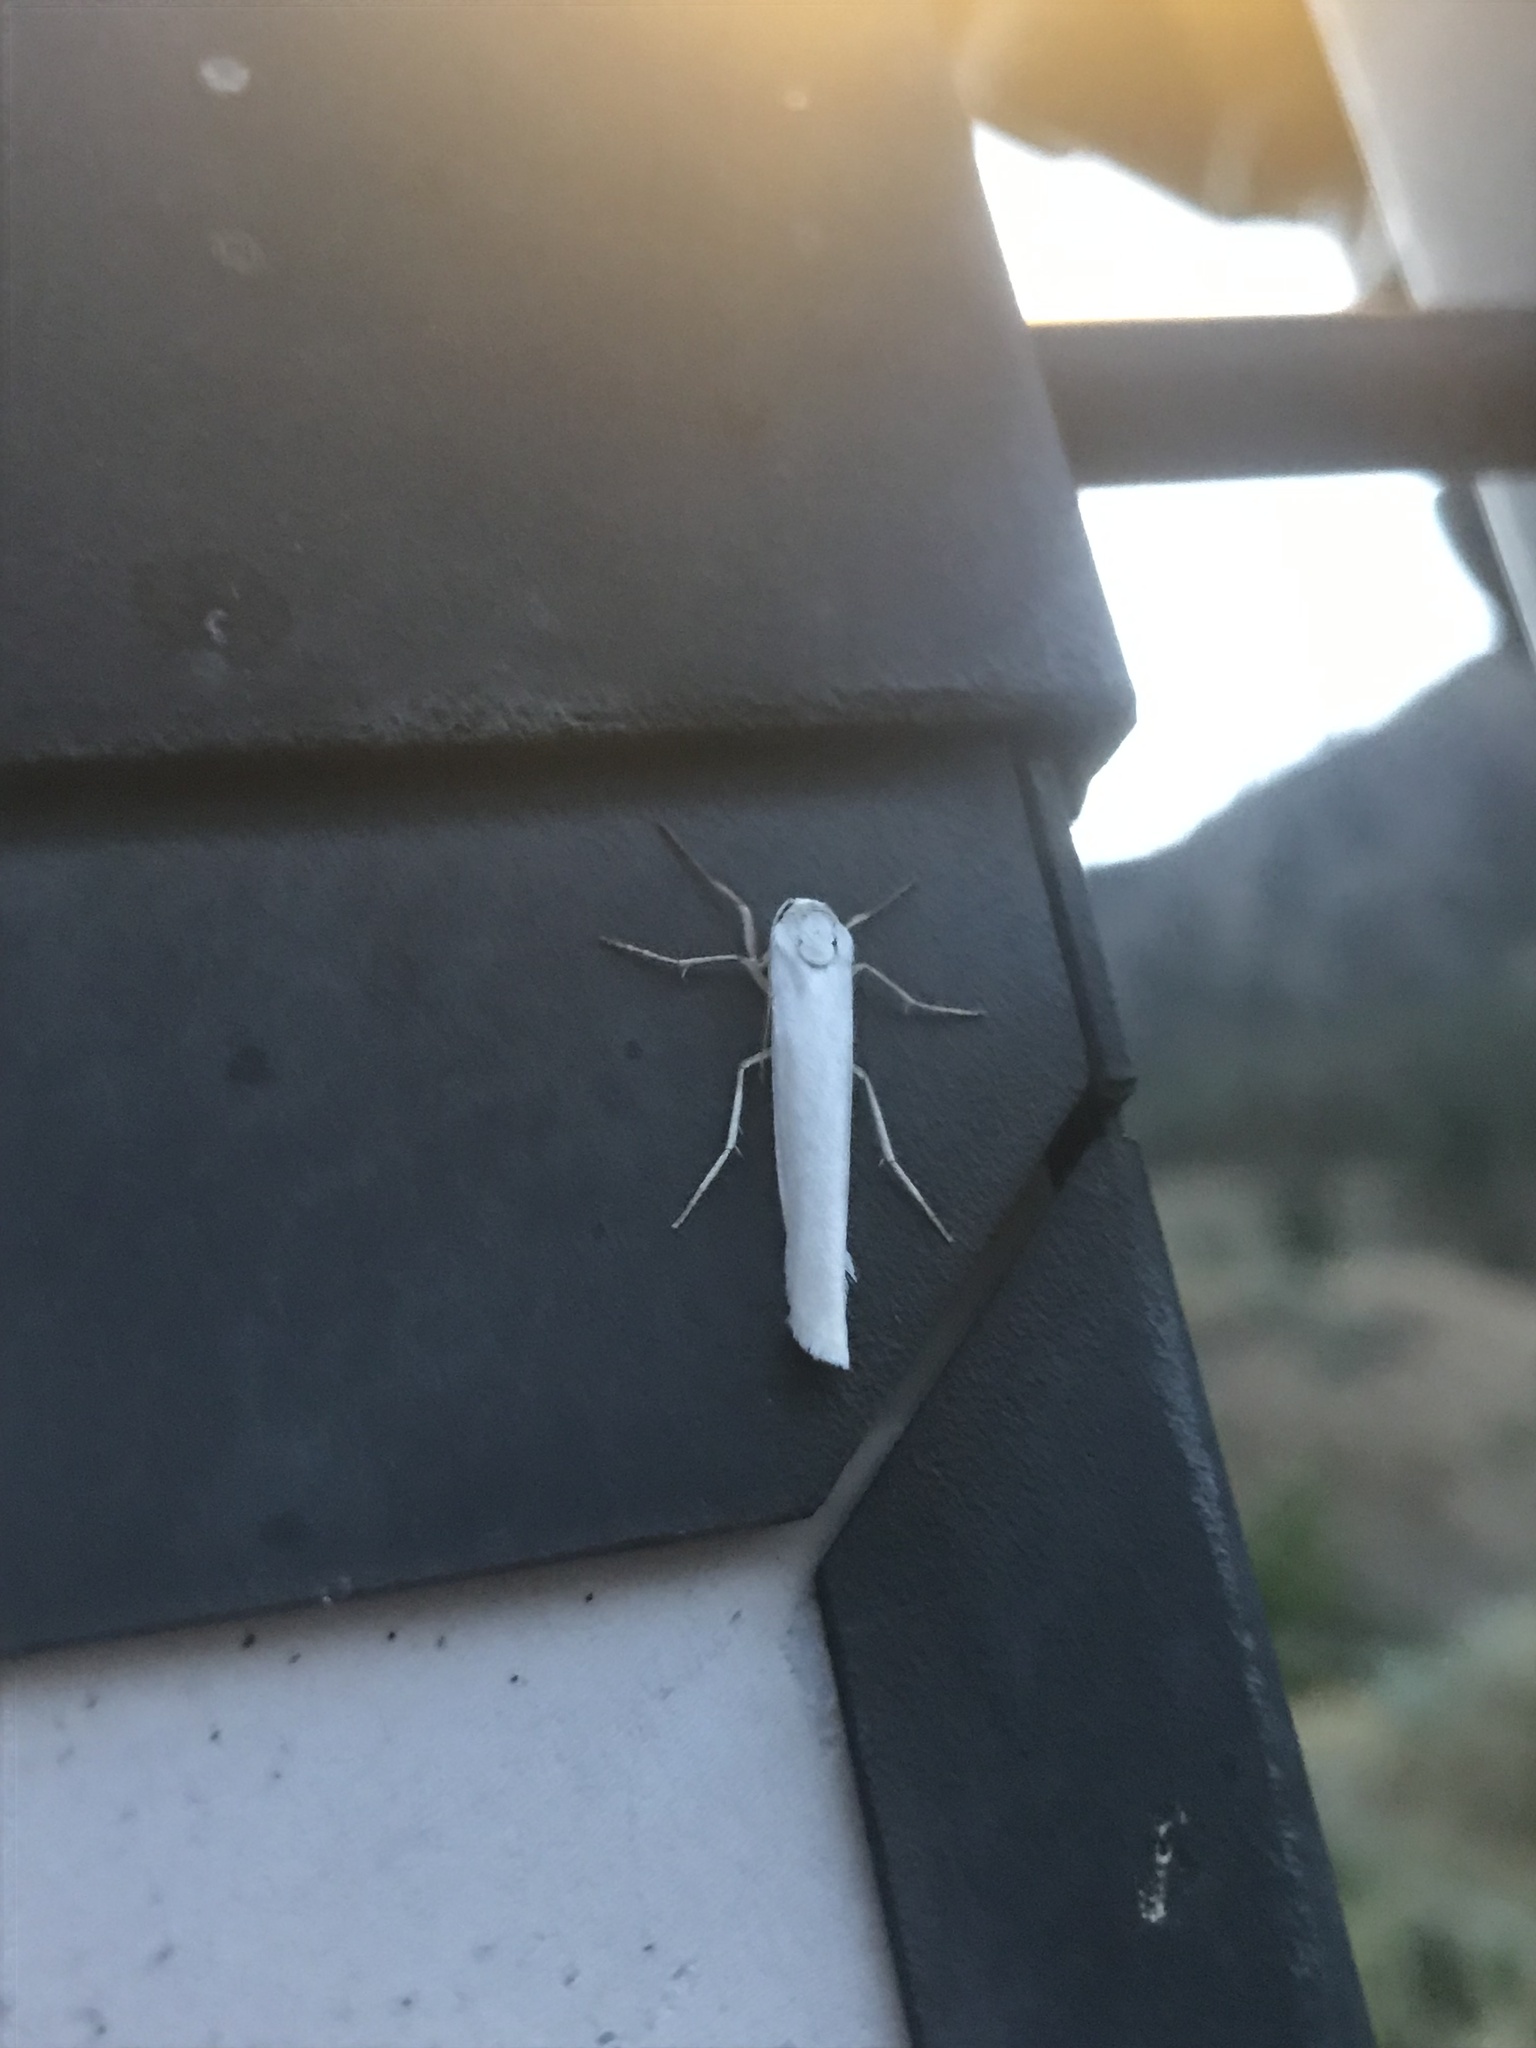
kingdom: Animalia
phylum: Arthropoda
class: Insecta
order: Lepidoptera
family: Erebidae
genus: Crambidia
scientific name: Crambidia casta
